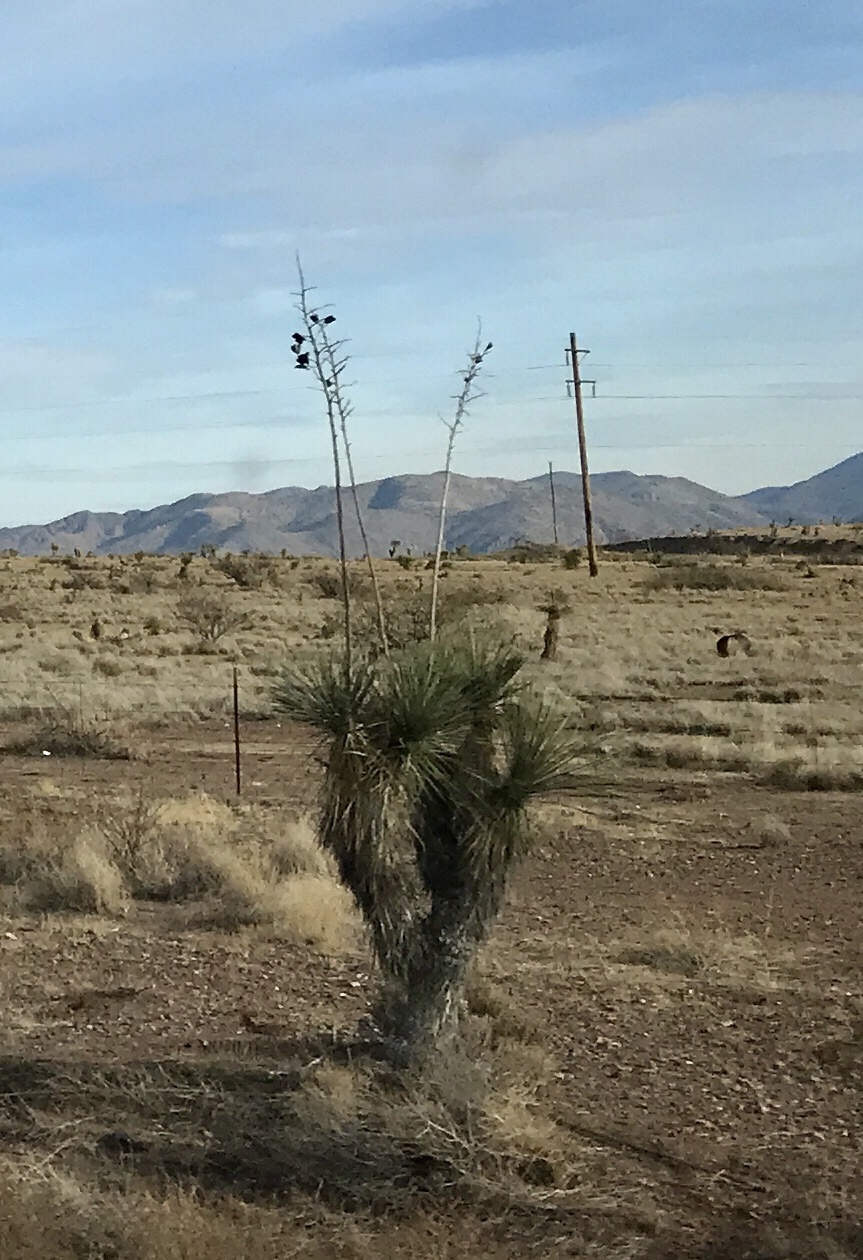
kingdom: Plantae
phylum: Tracheophyta
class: Liliopsida
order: Asparagales
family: Asparagaceae
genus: Yucca
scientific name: Yucca elata
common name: Palmella
